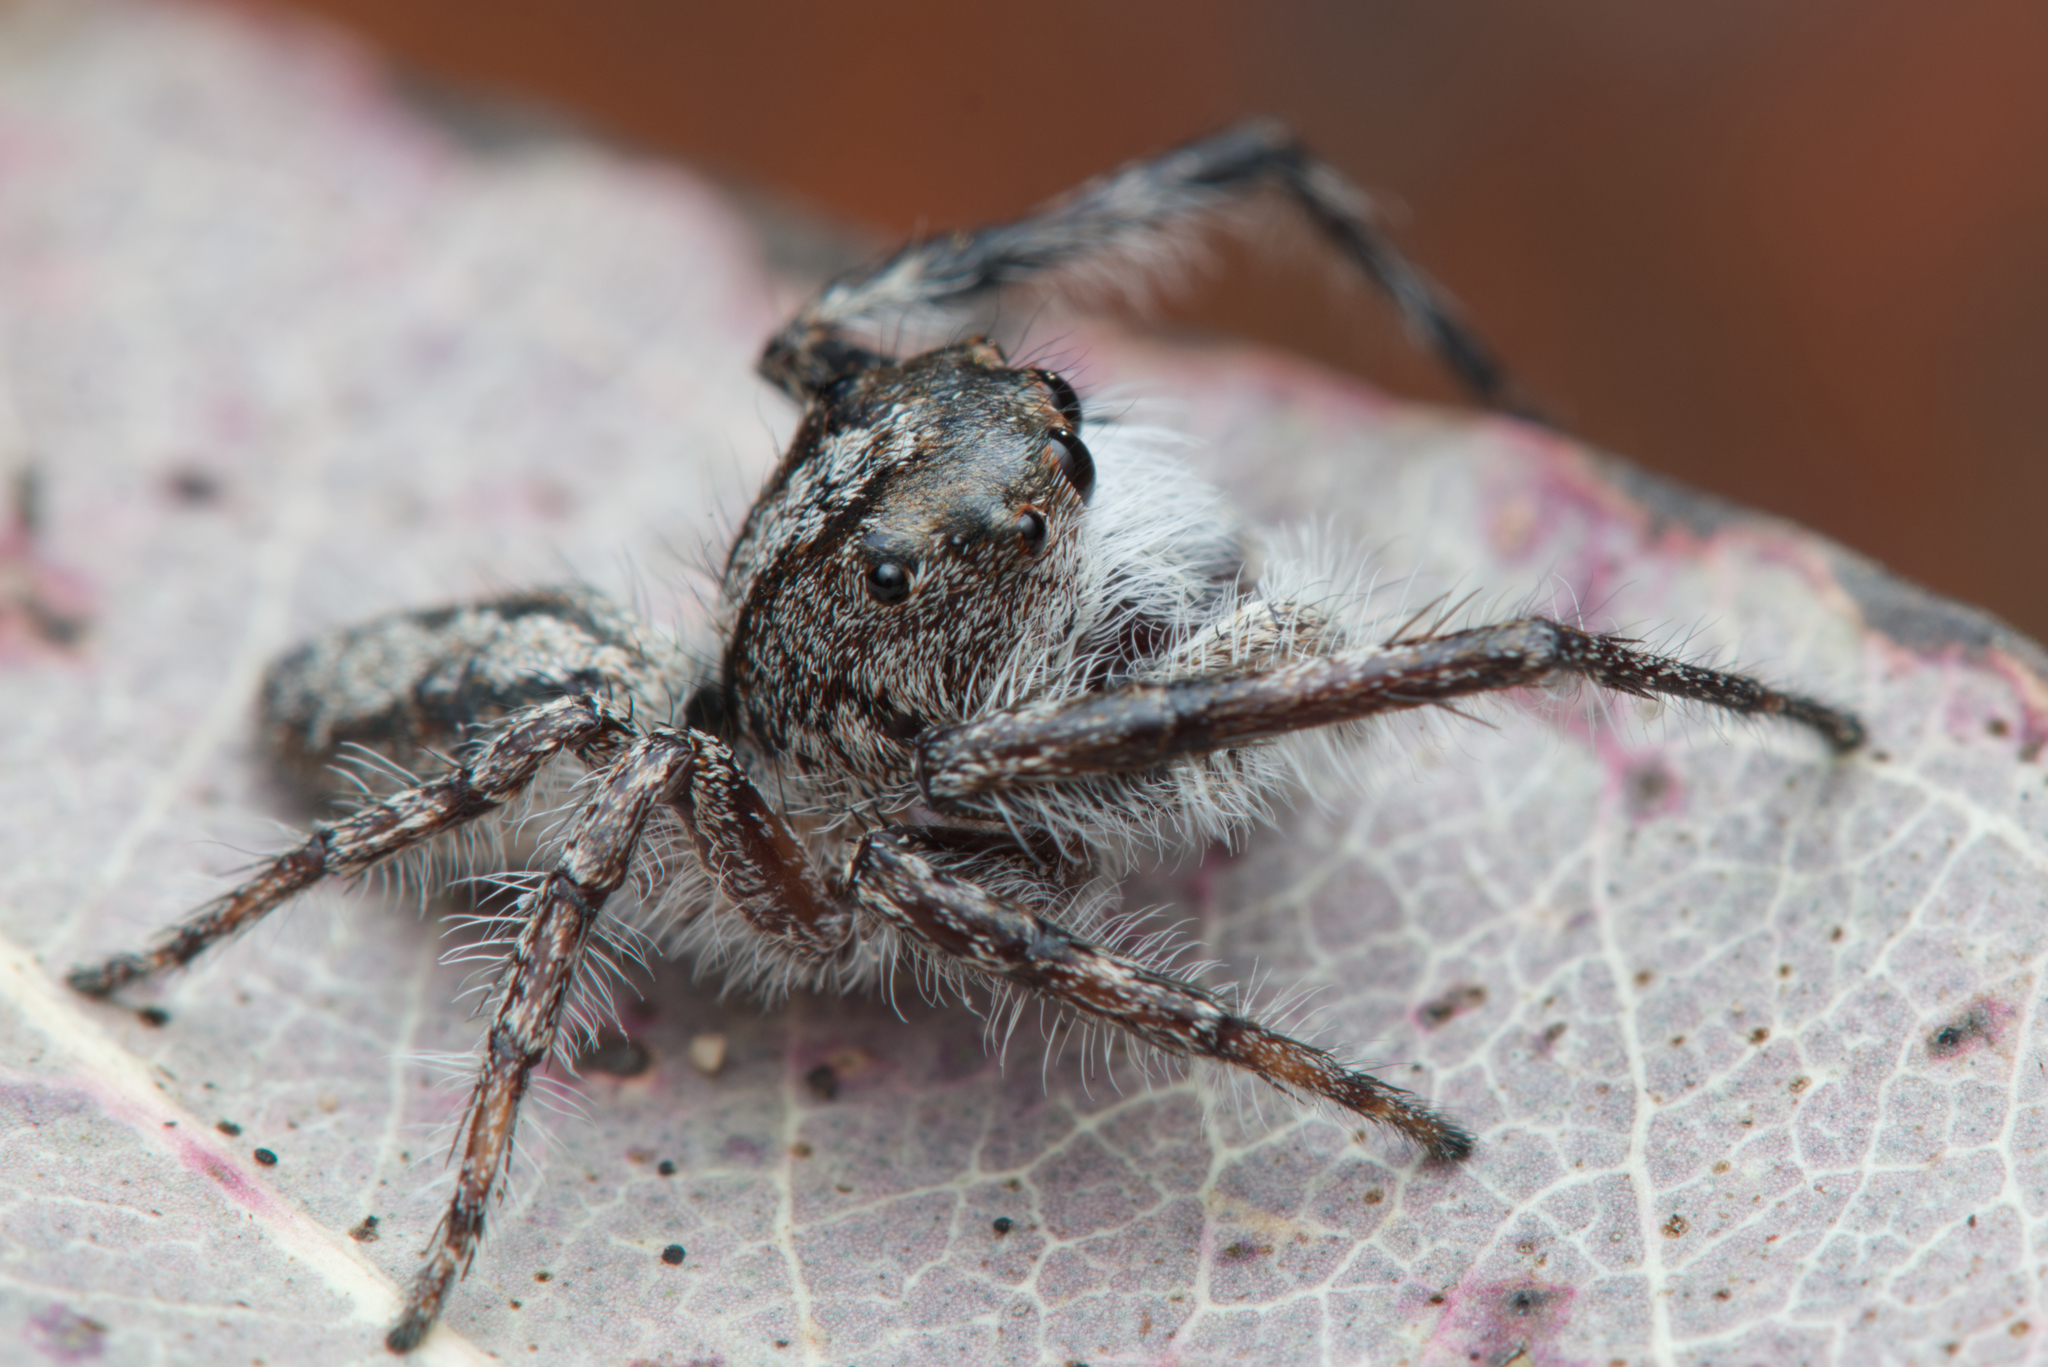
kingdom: Animalia
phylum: Arthropoda
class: Arachnida
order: Araneae
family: Salticidae
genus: Cytaea
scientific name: Cytaea aspera
